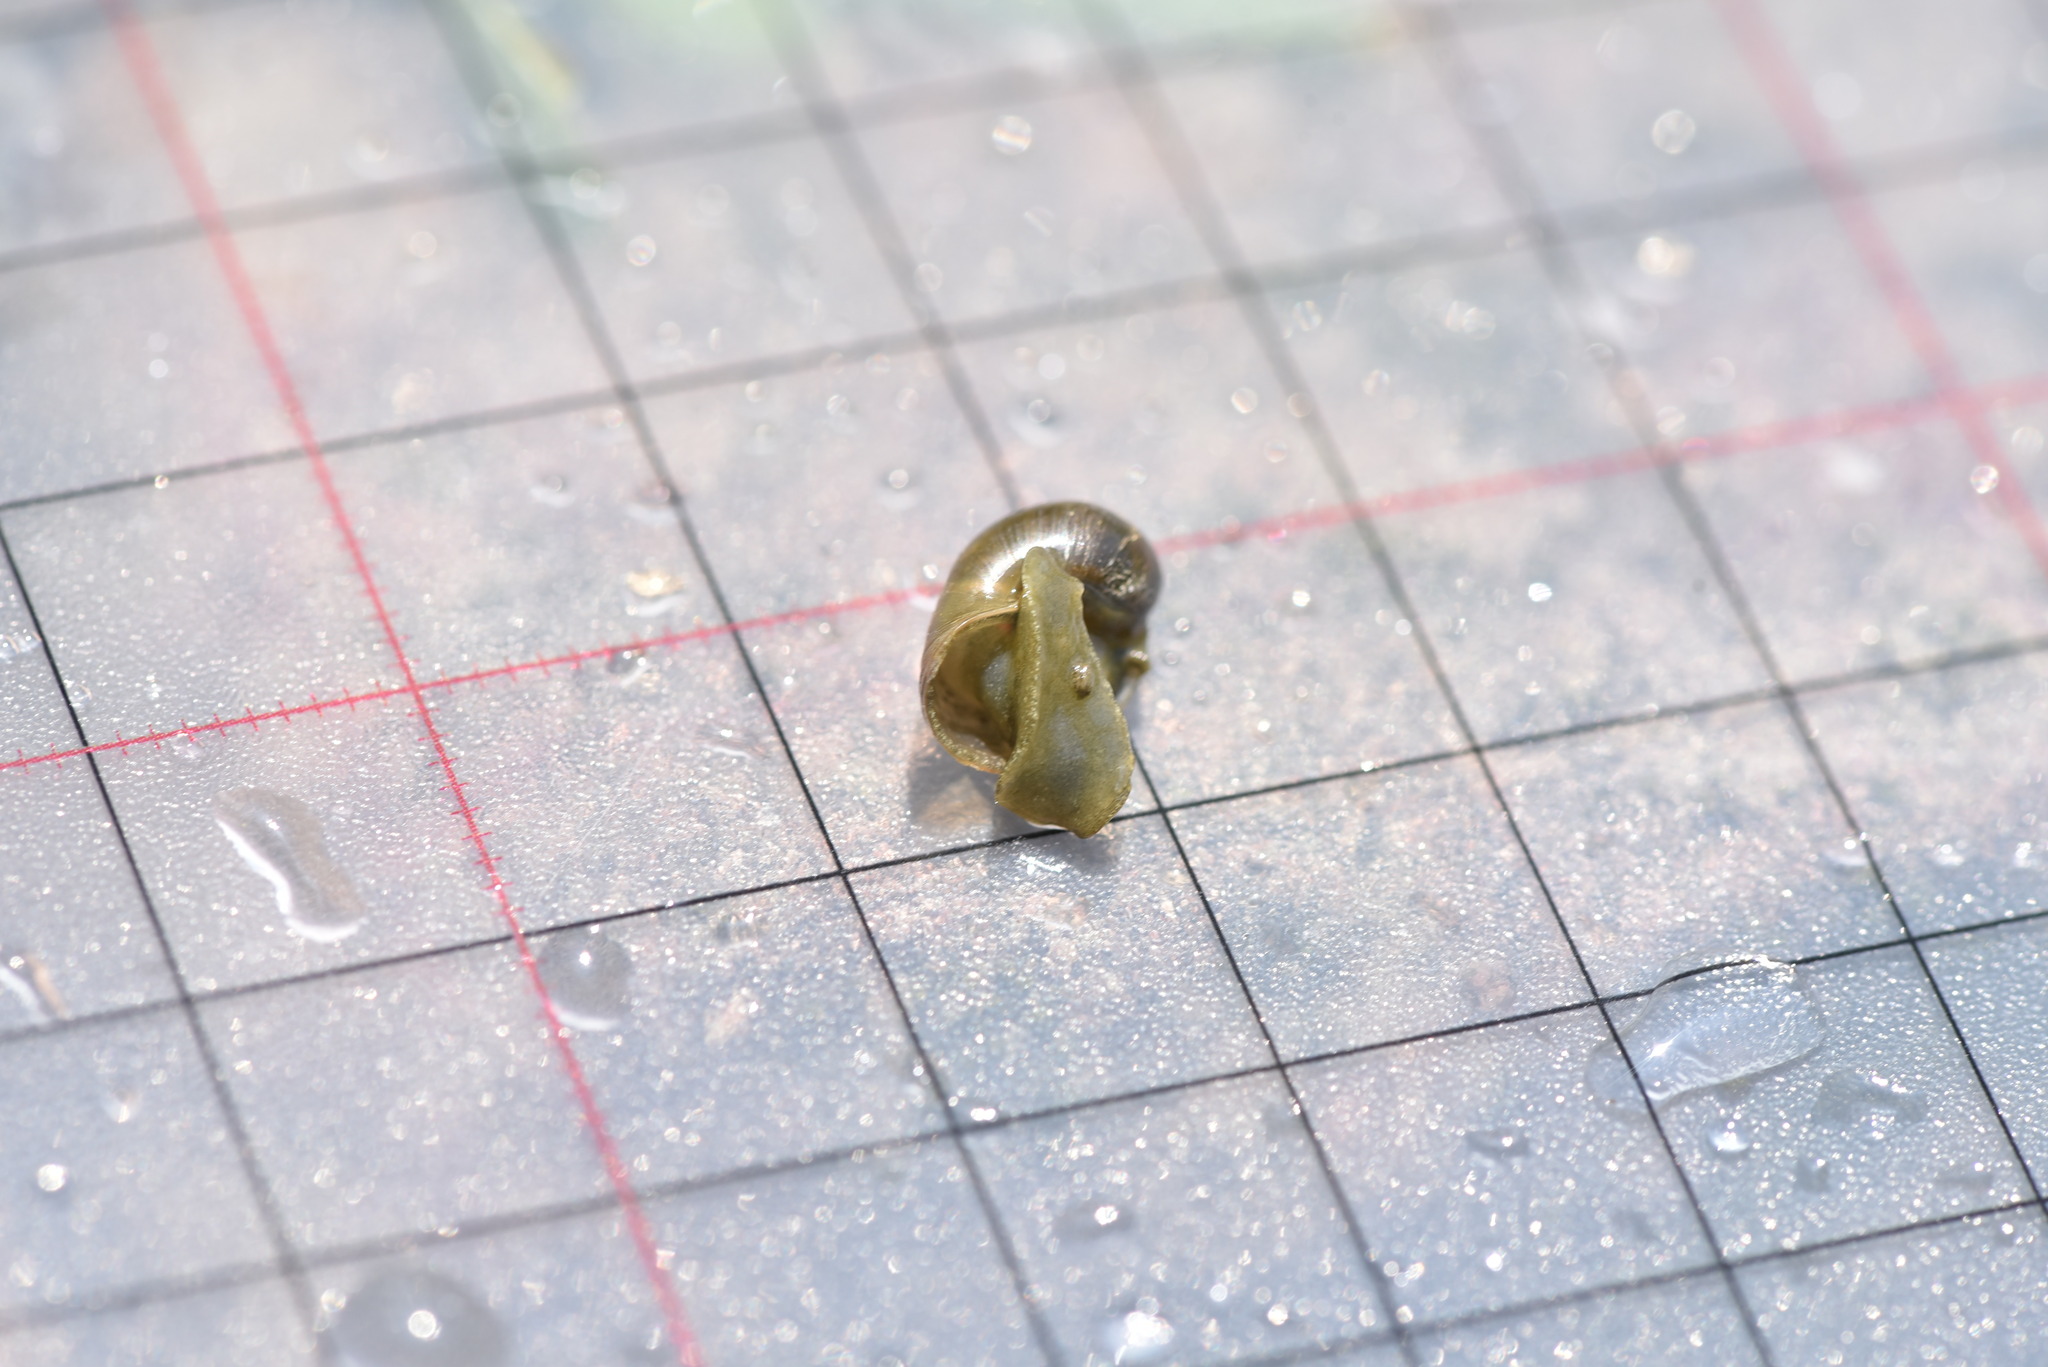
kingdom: Animalia
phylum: Mollusca
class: Gastropoda
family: Lymnaeidae
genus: Radix
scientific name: Radix plicatula
